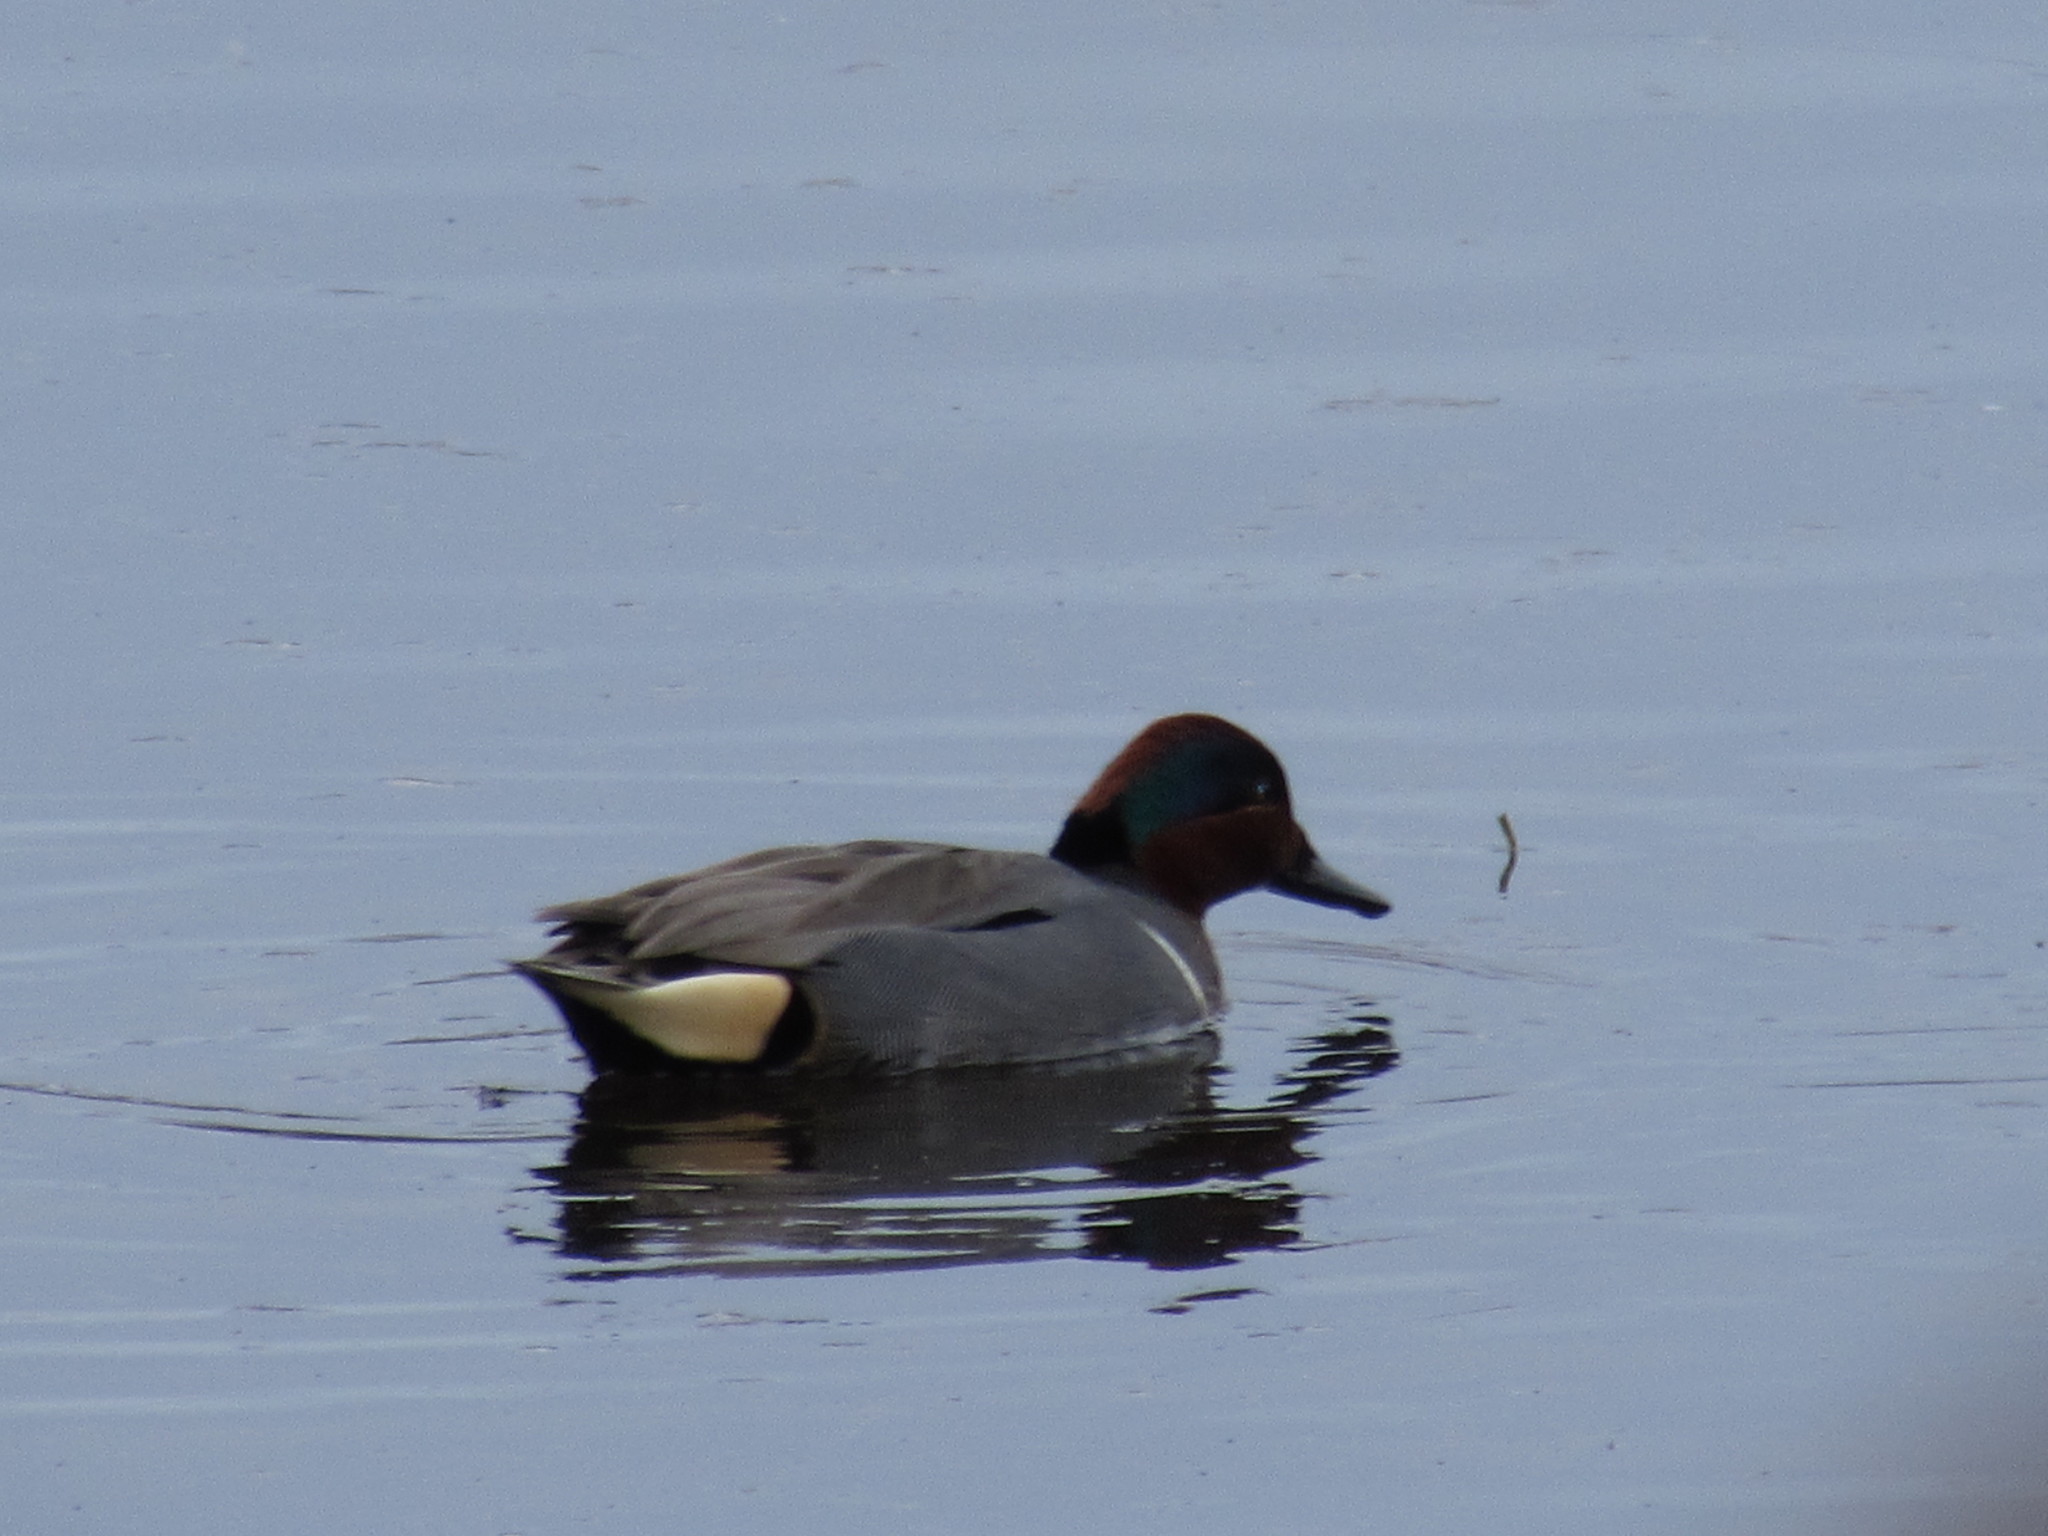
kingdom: Animalia
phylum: Chordata
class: Aves
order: Anseriformes
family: Anatidae
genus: Anas
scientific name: Anas crecca
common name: Eurasian teal
